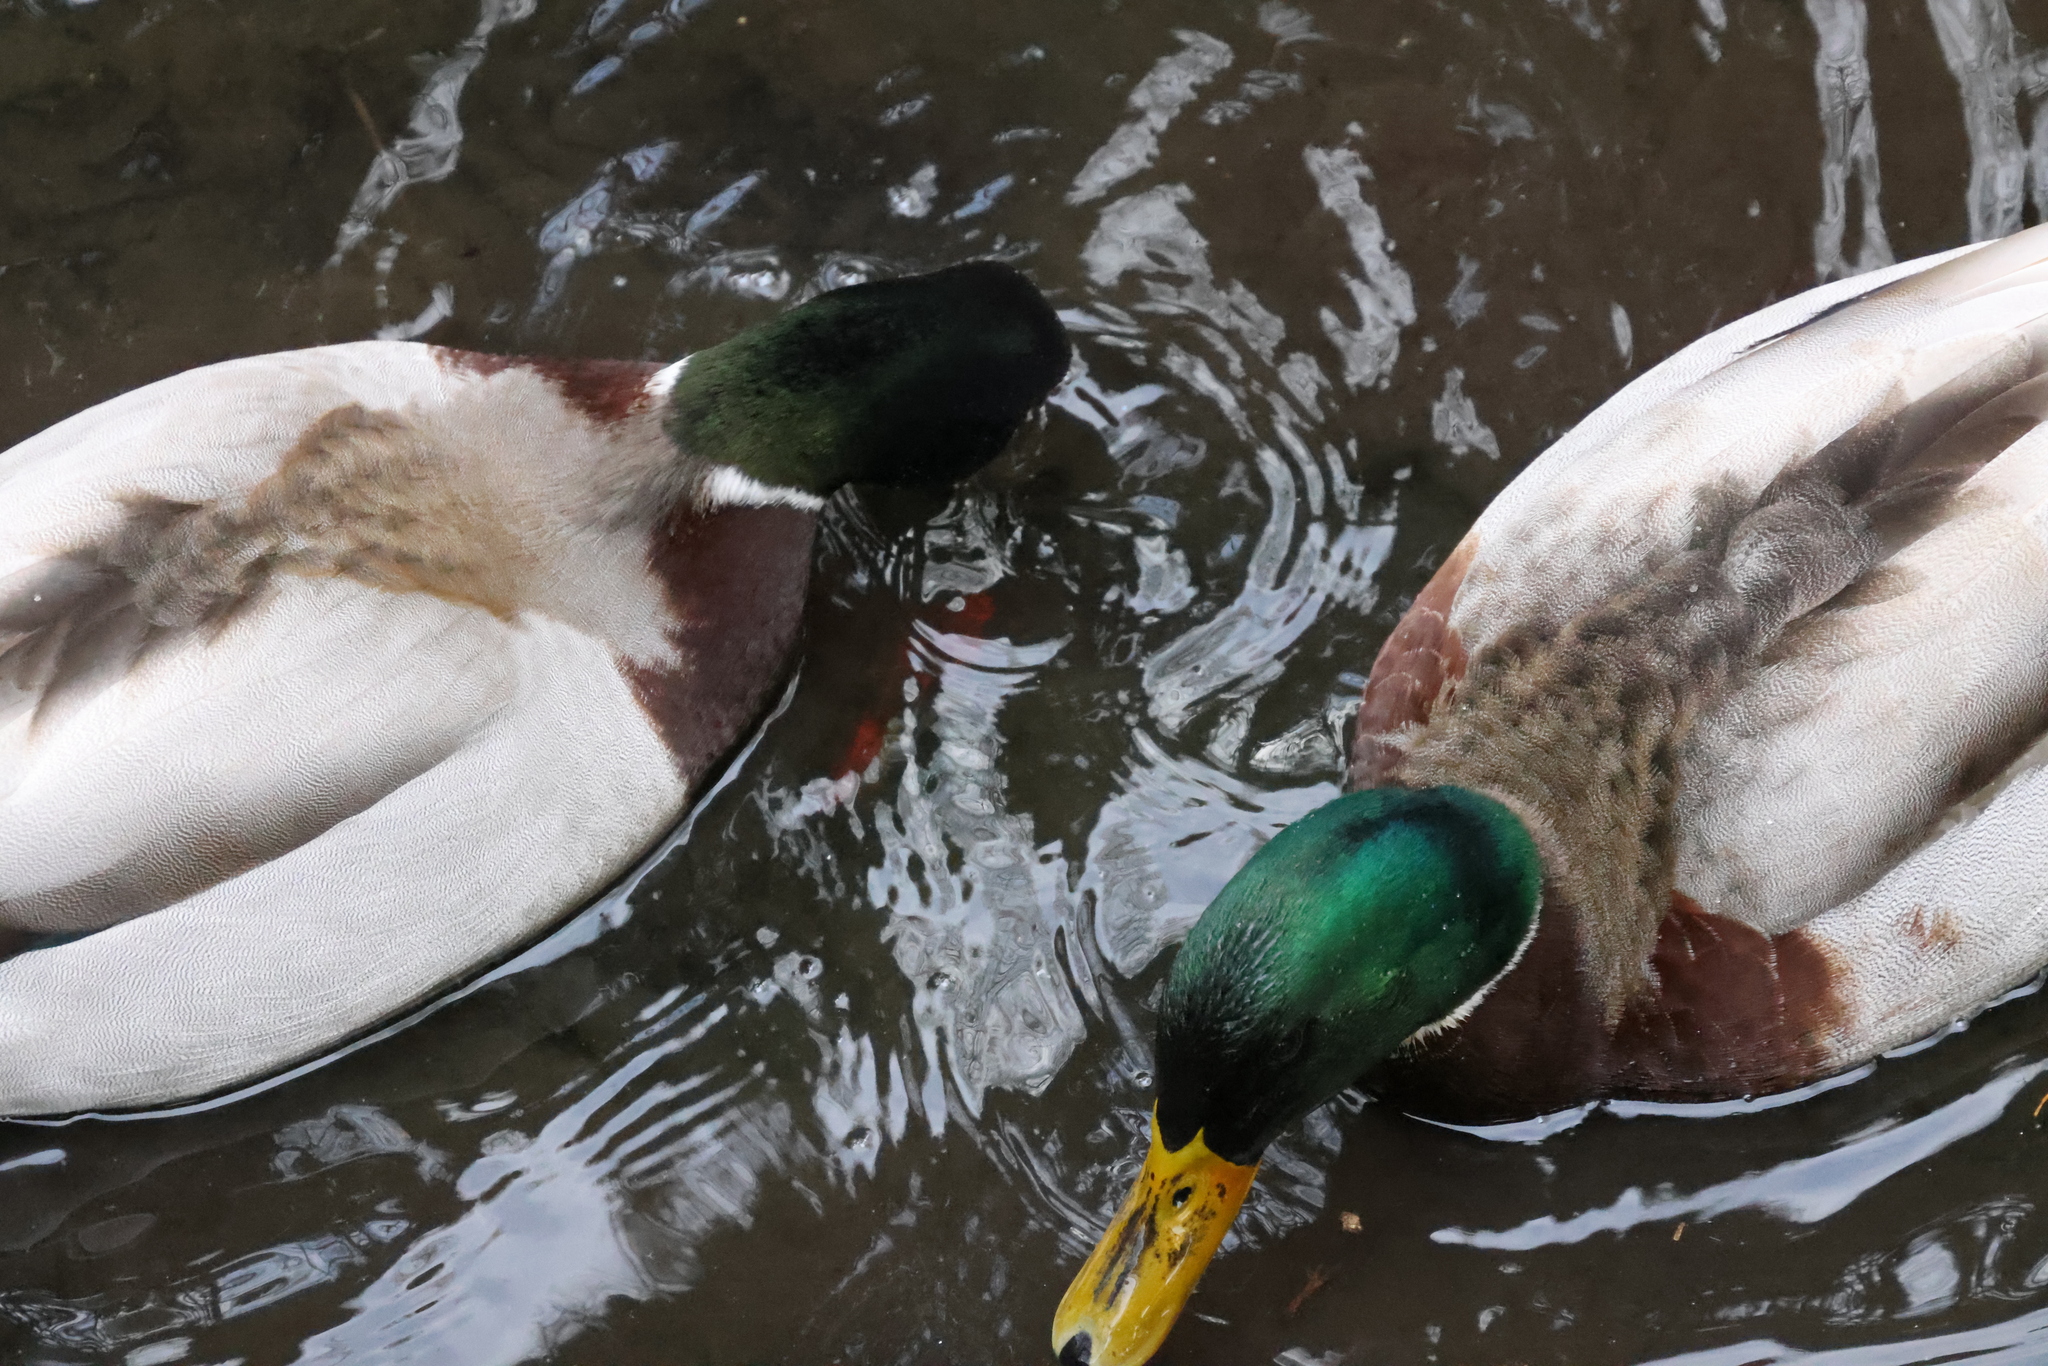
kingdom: Animalia
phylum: Chordata
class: Aves
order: Anseriformes
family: Anatidae
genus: Anas
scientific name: Anas platyrhynchos
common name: Mallard
